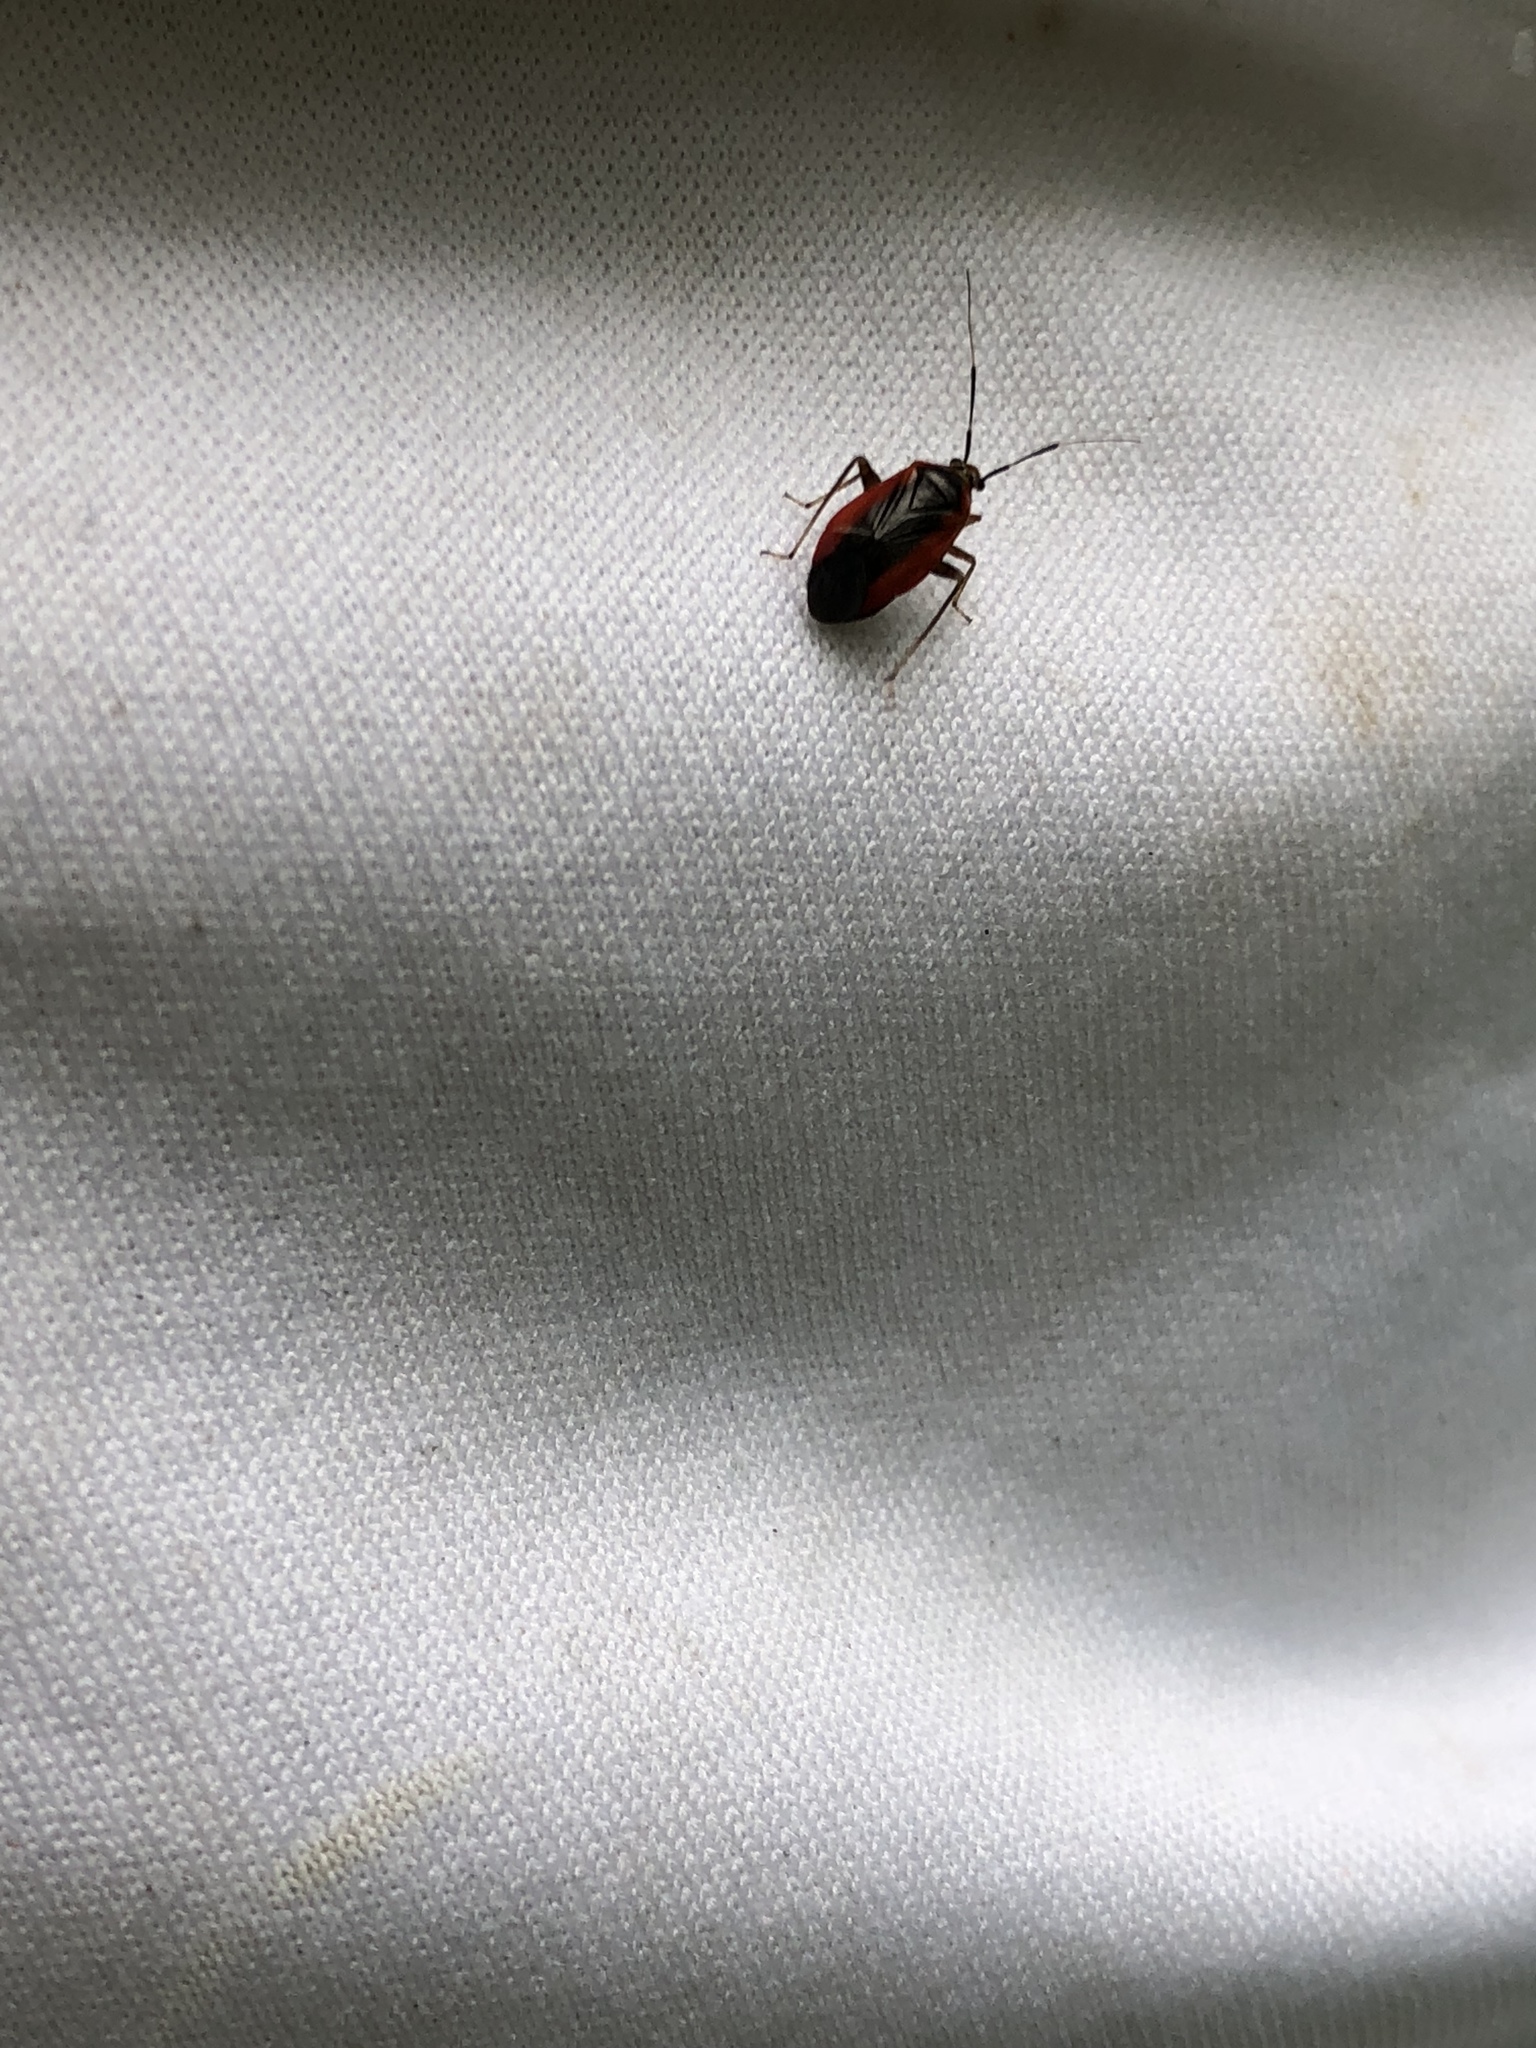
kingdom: Animalia
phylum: Arthropoda
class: Insecta
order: Hemiptera
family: Miridae
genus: Metriorrhynchomiris
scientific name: Metriorrhynchomiris dislocatus
